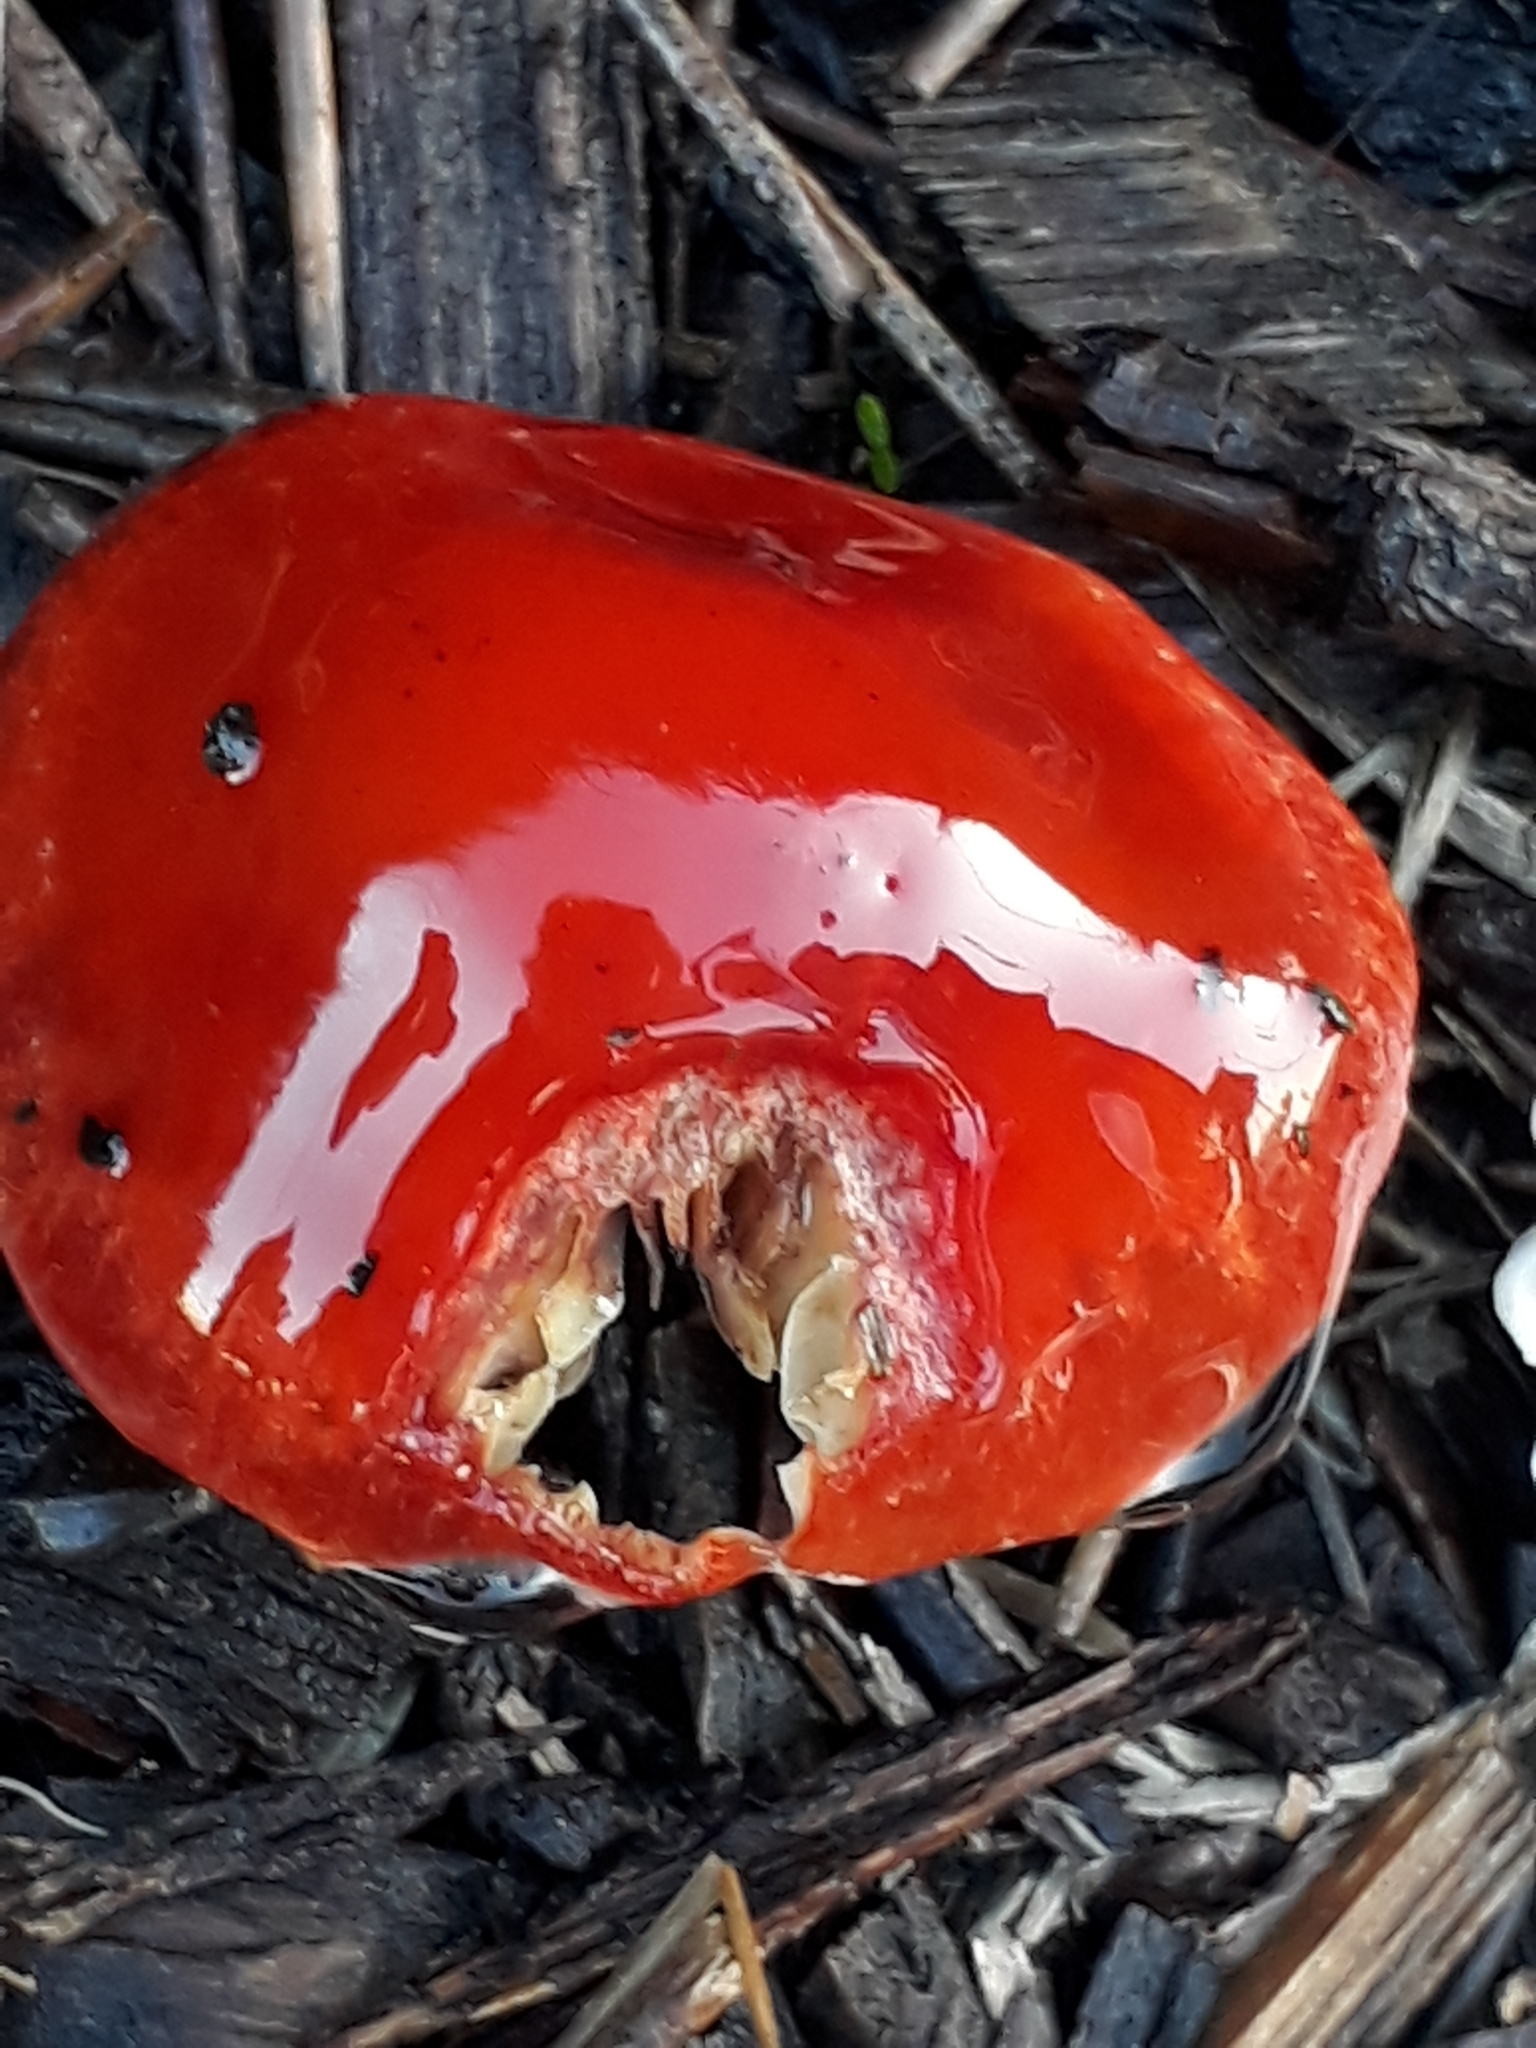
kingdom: Fungi
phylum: Basidiomycota
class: Agaricomycetes
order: Agaricales
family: Strophariaceae
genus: Leratiomyces
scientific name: Leratiomyces ceres
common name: Redlead roundhead
